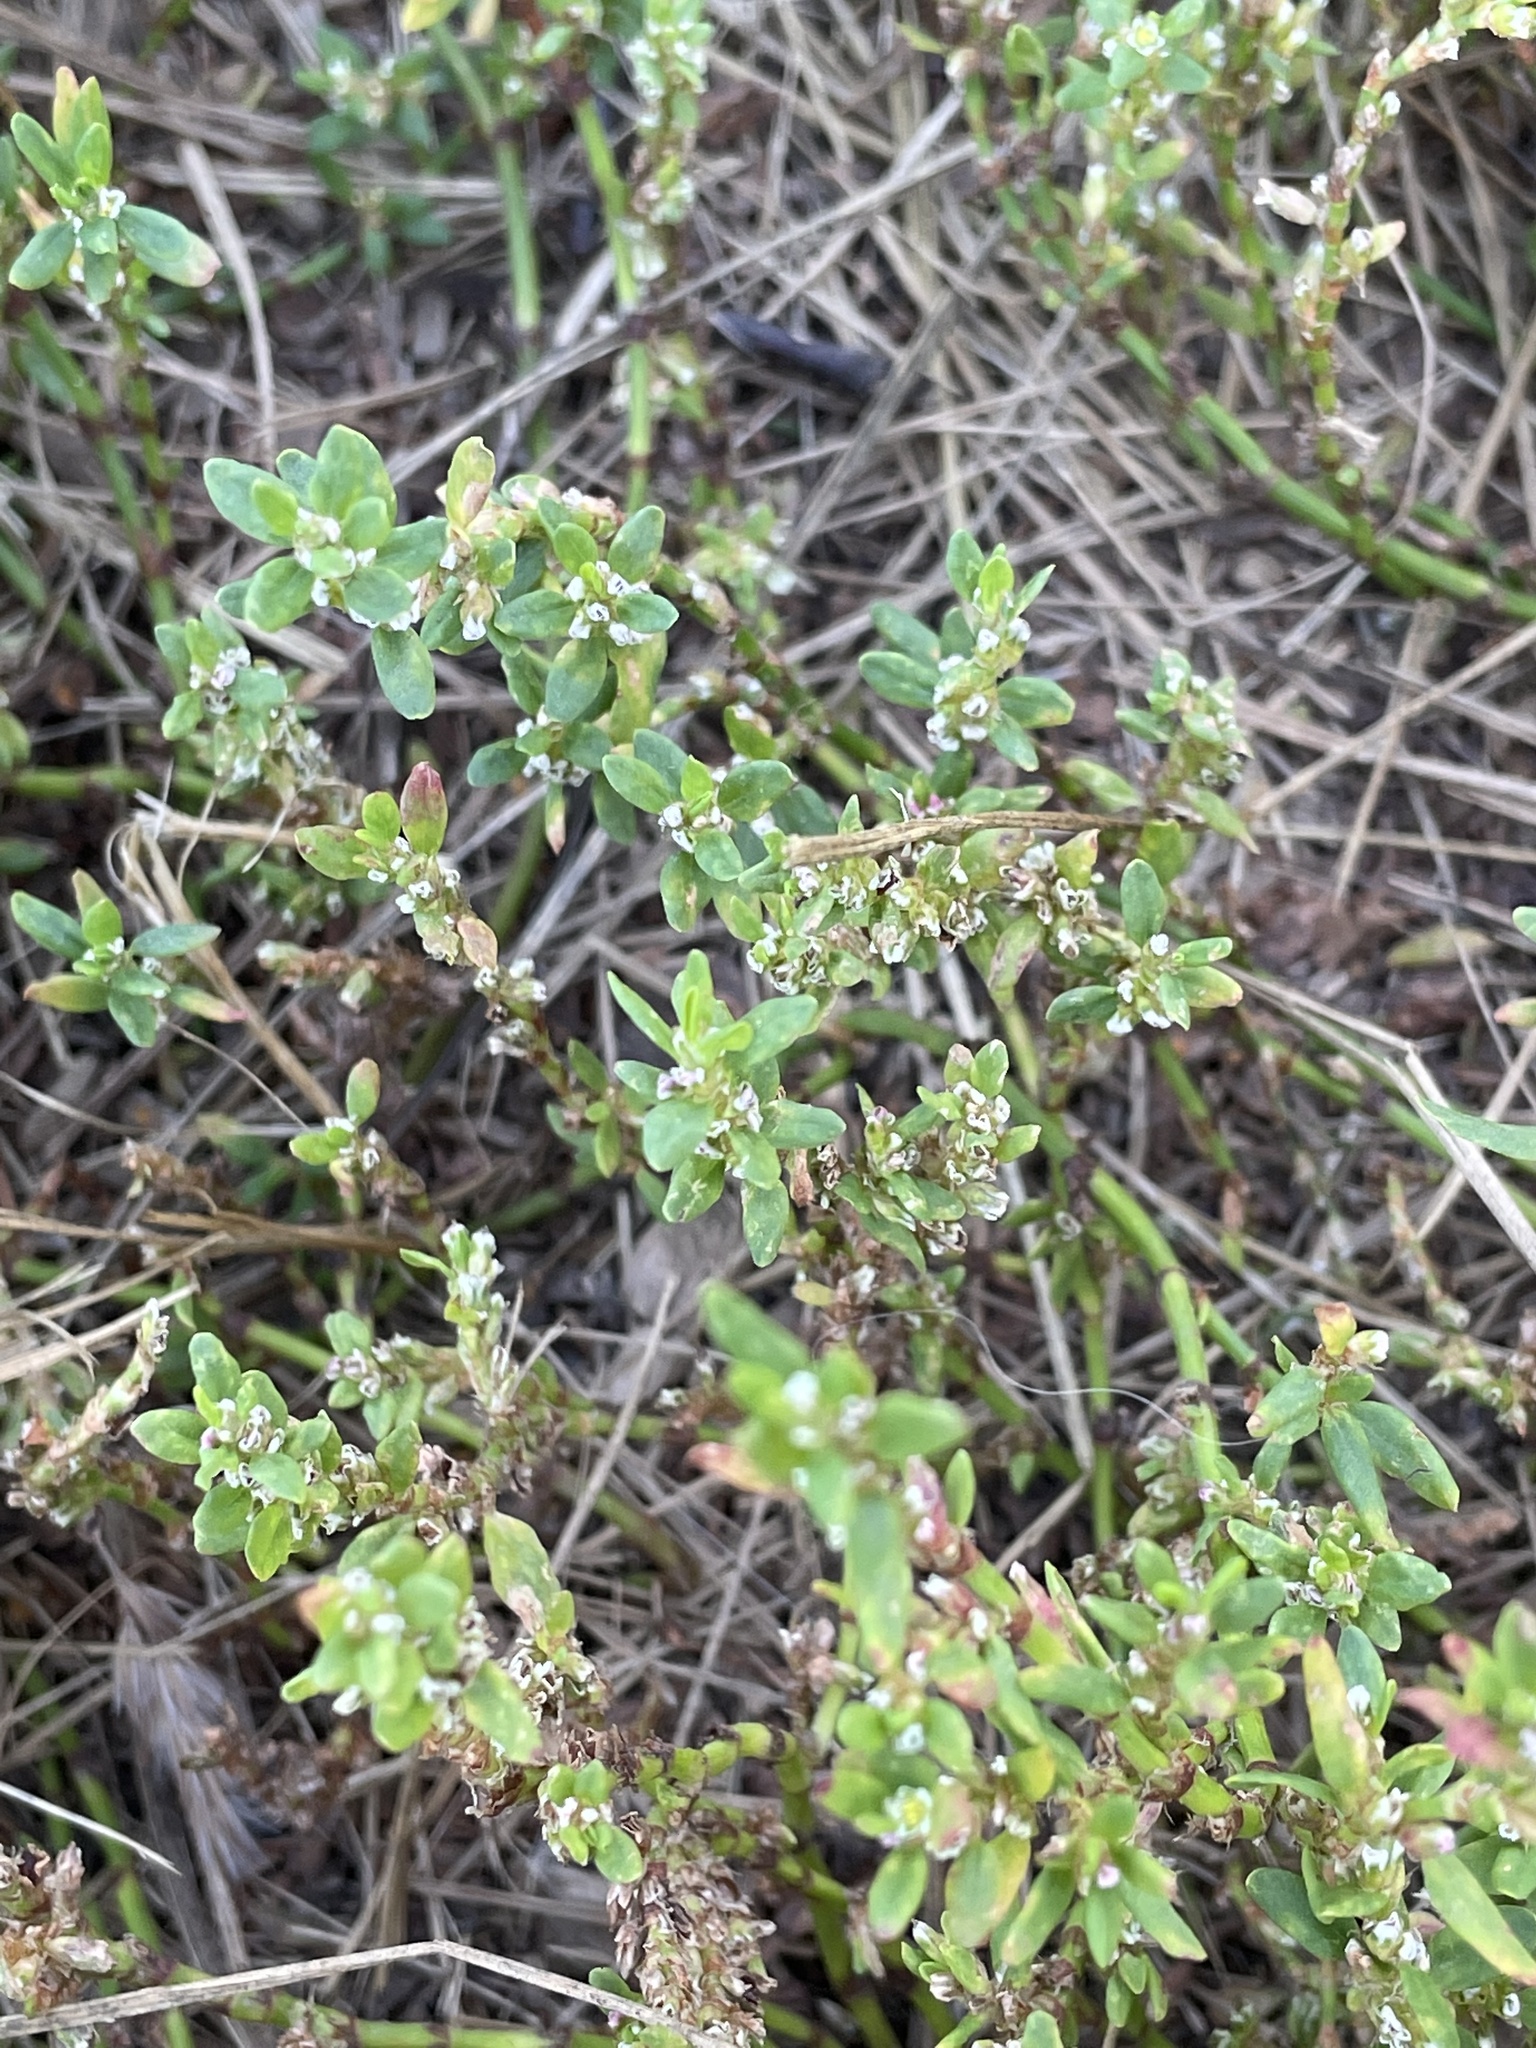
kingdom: Plantae
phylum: Tracheophyta
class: Magnoliopsida
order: Caryophyllales
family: Polygonaceae
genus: Polygonum
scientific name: Polygonum
